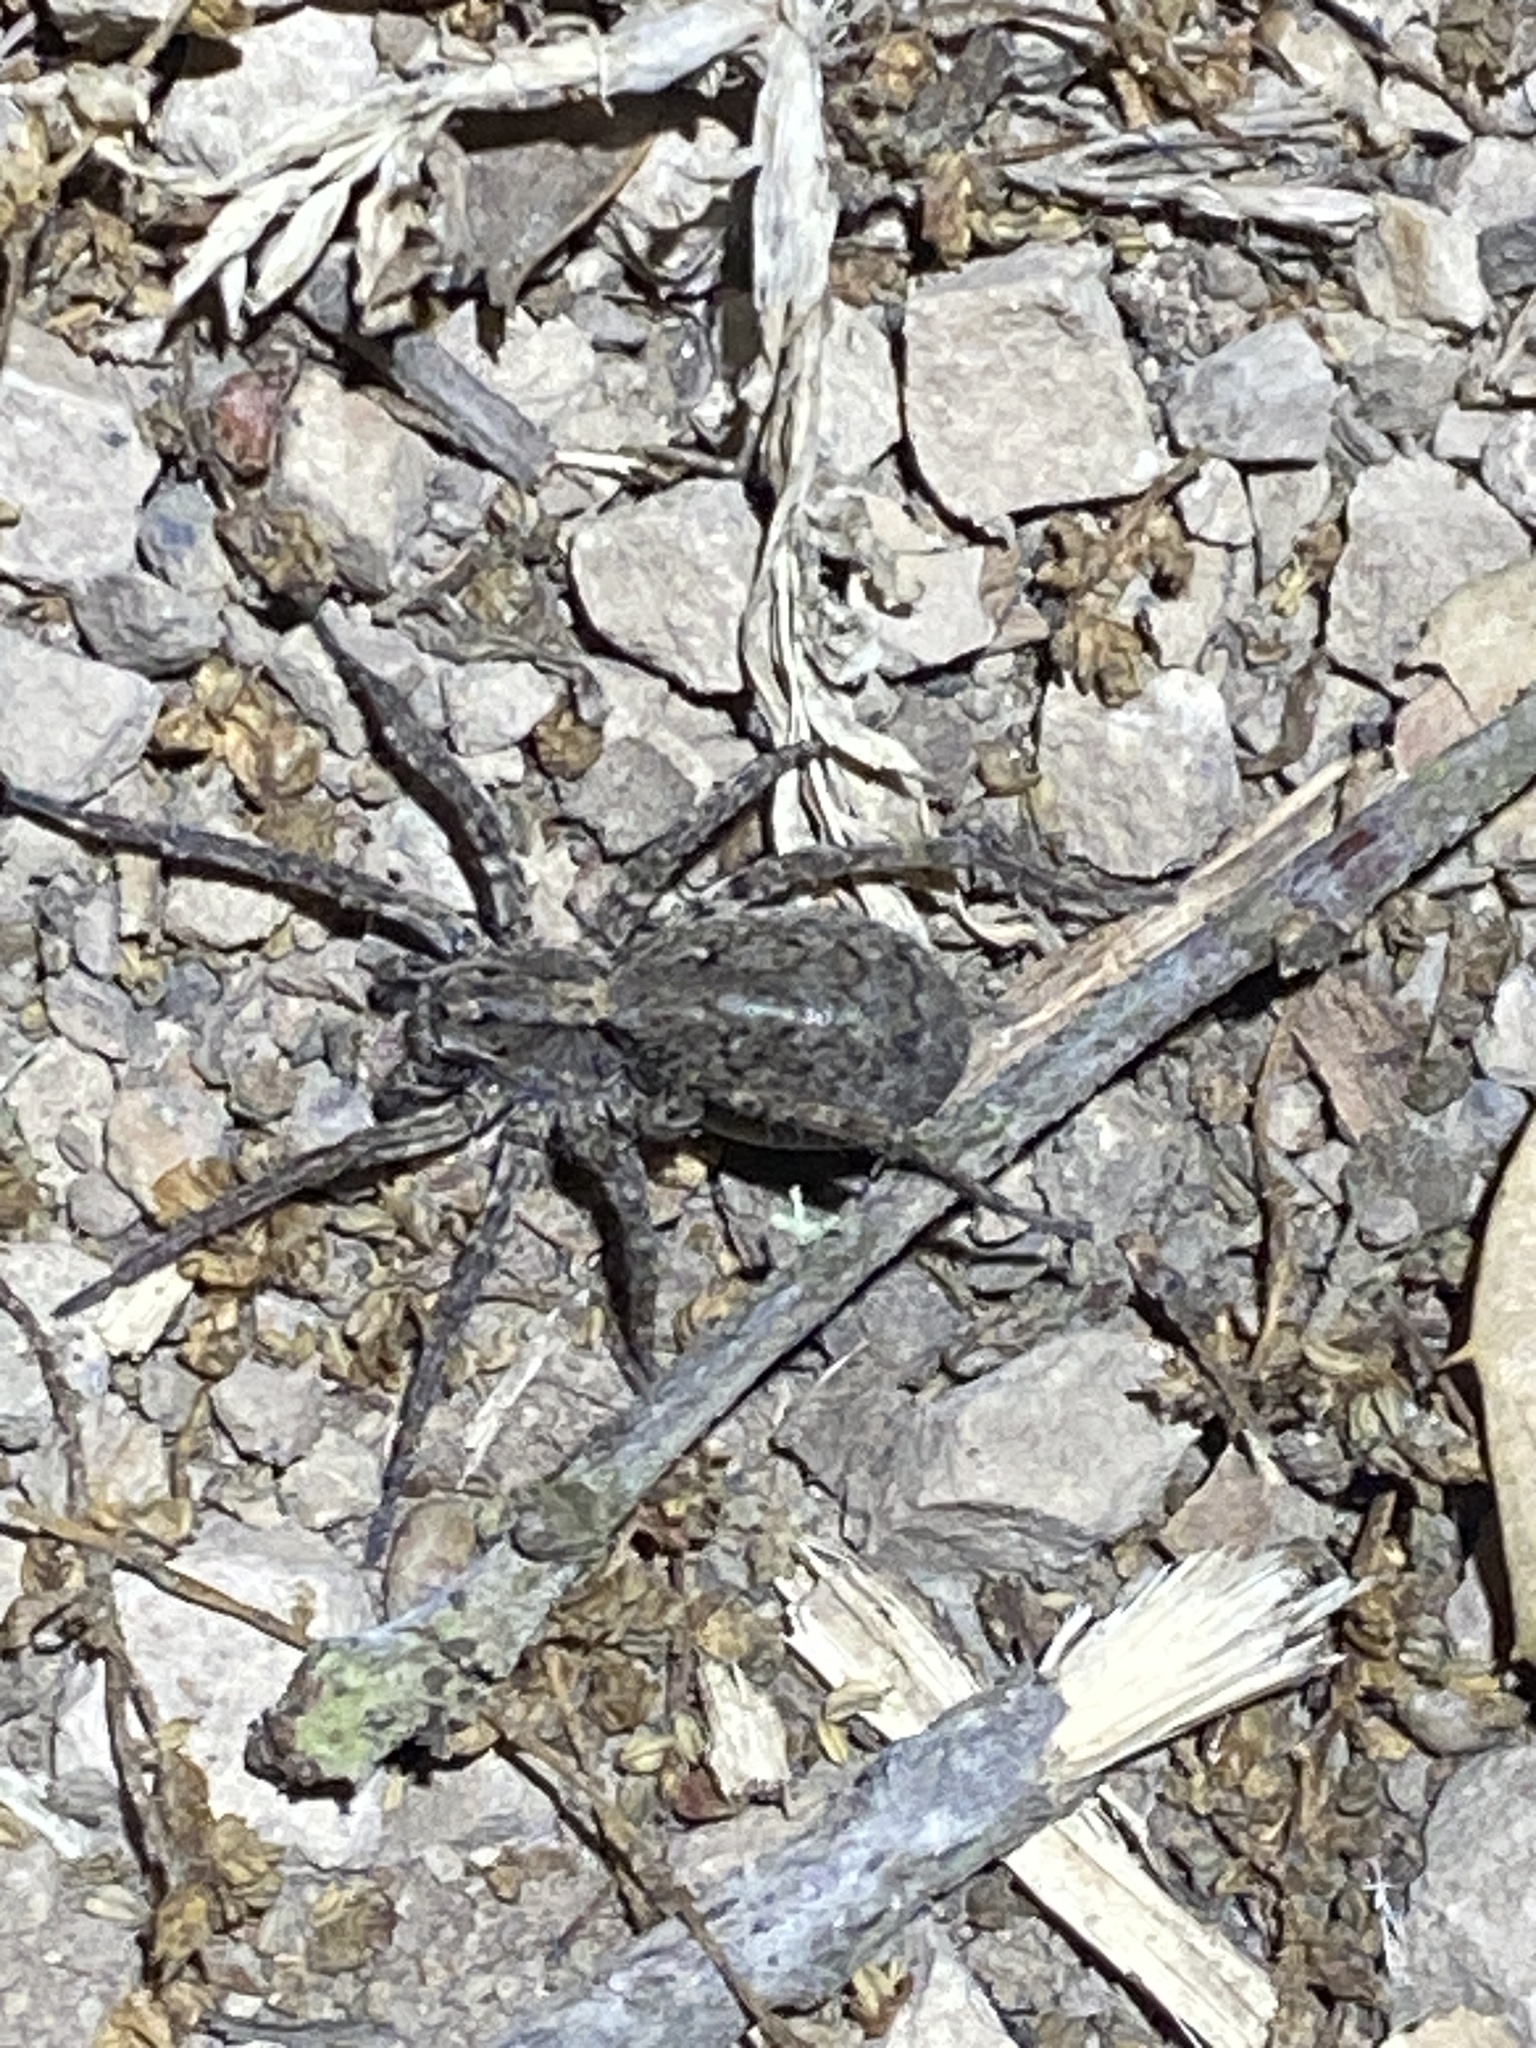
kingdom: Animalia
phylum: Arthropoda
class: Arachnida
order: Araneae
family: Lycosidae
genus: Alopecosa
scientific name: Alopecosa kochi
